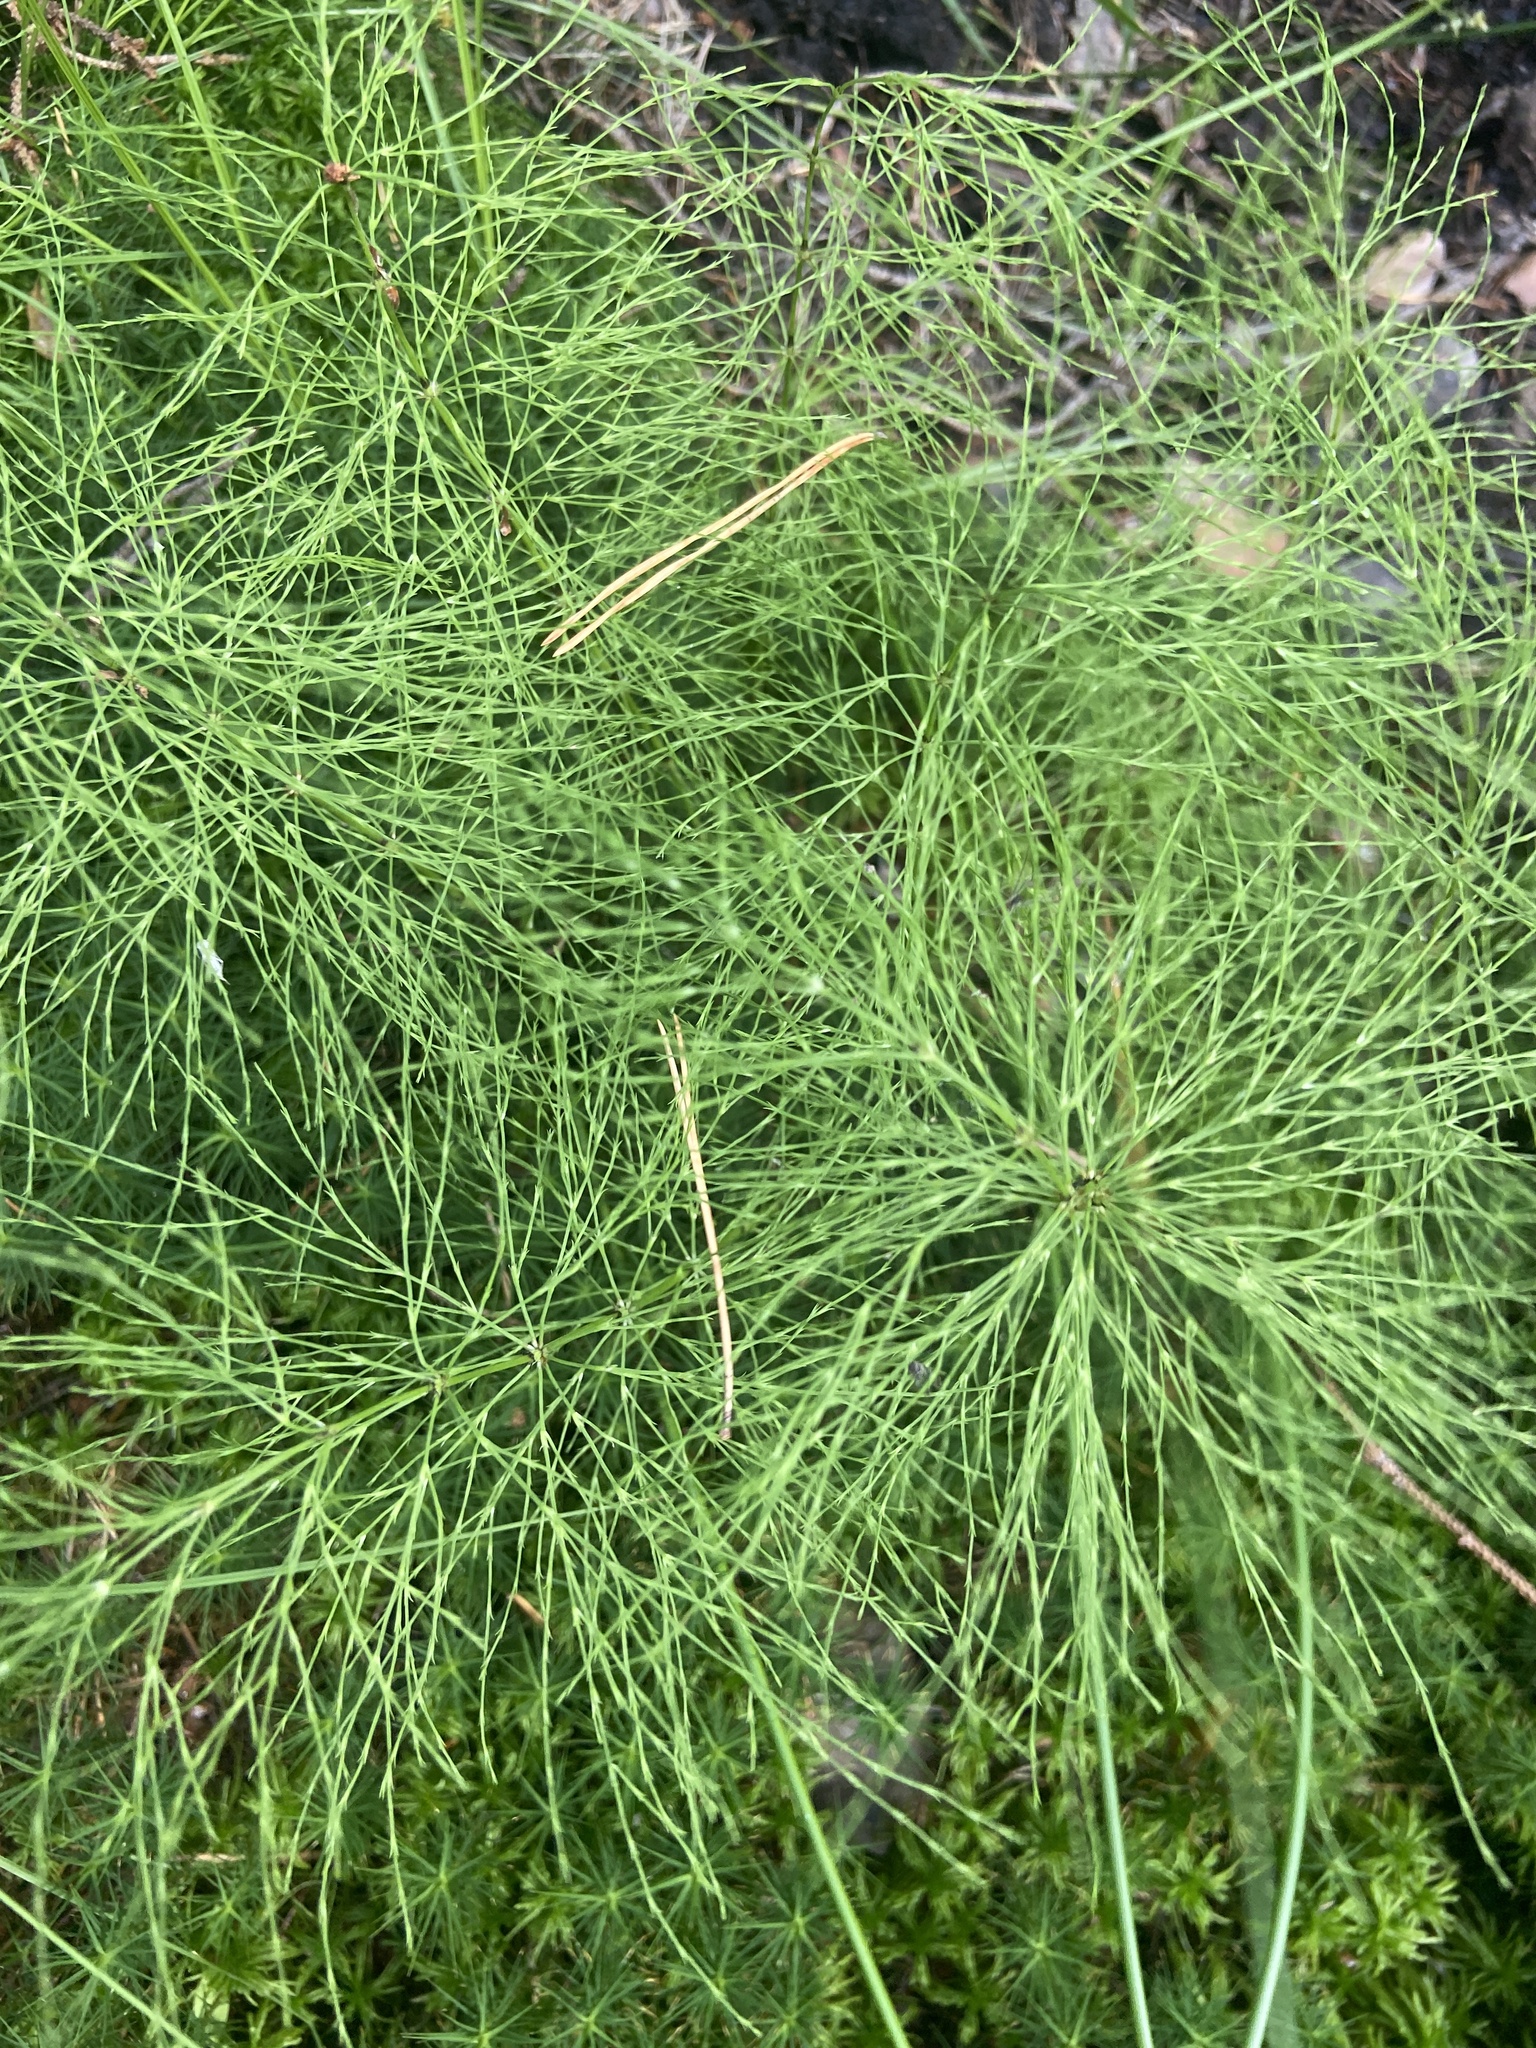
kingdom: Plantae
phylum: Tracheophyta
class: Polypodiopsida
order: Equisetales
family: Equisetaceae
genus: Equisetum
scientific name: Equisetum sylvaticum
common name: Wood horsetail
